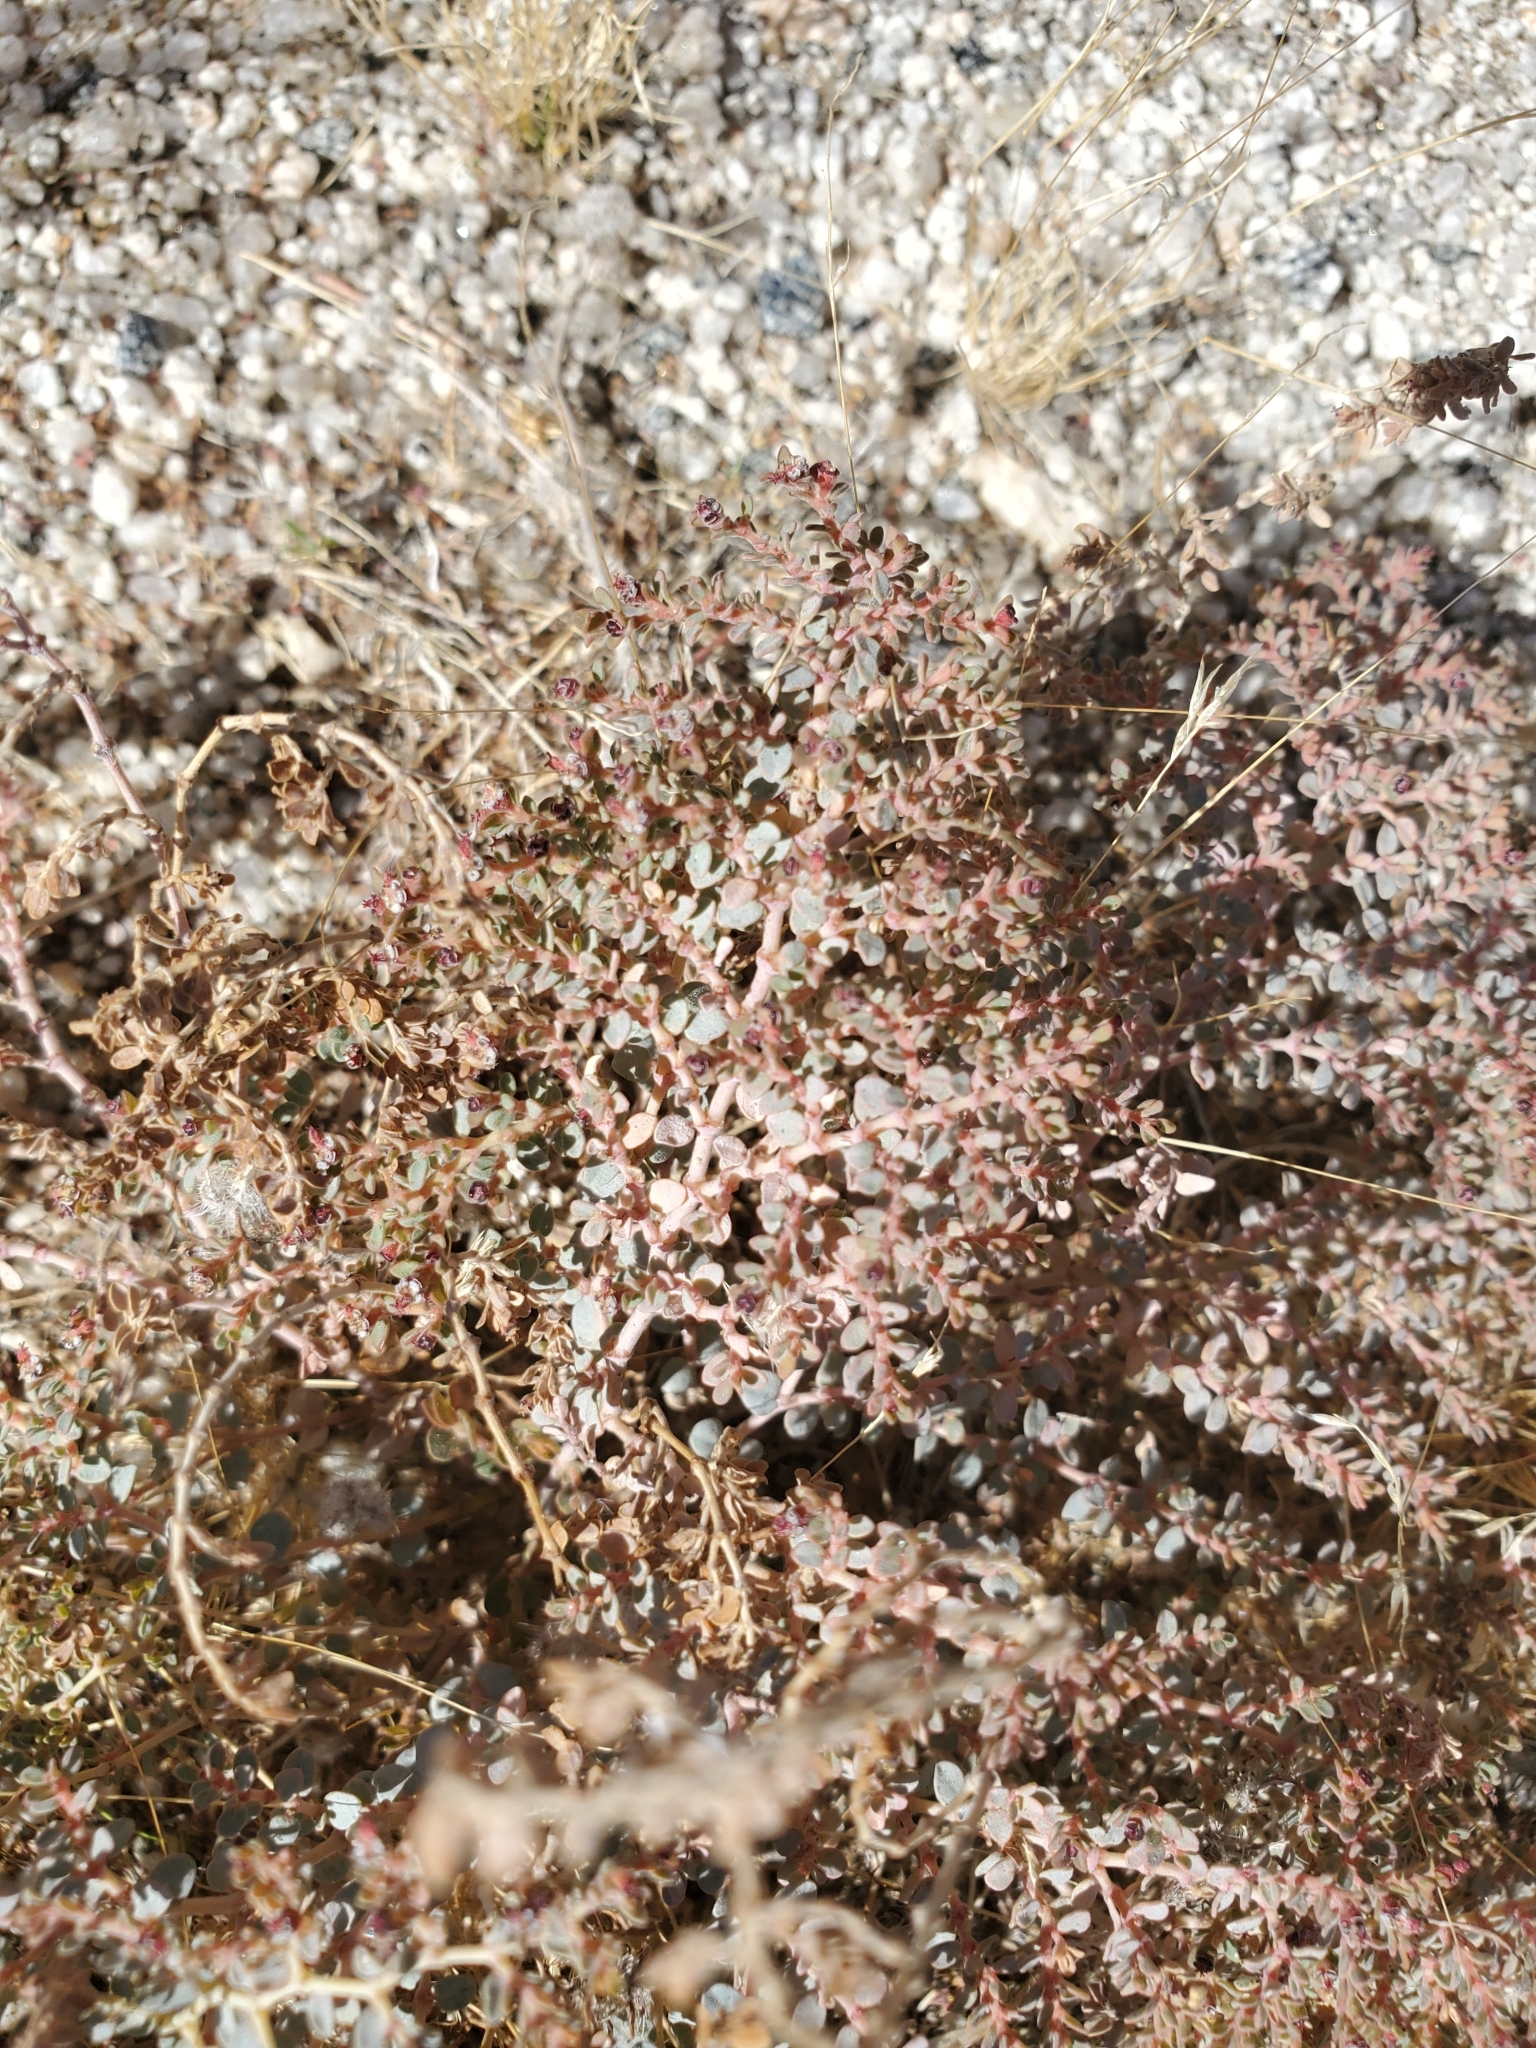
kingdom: Plantae
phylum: Tracheophyta
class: Magnoliopsida
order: Malpighiales
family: Euphorbiaceae
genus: Euphorbia
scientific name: Euphorbia polycarpa
